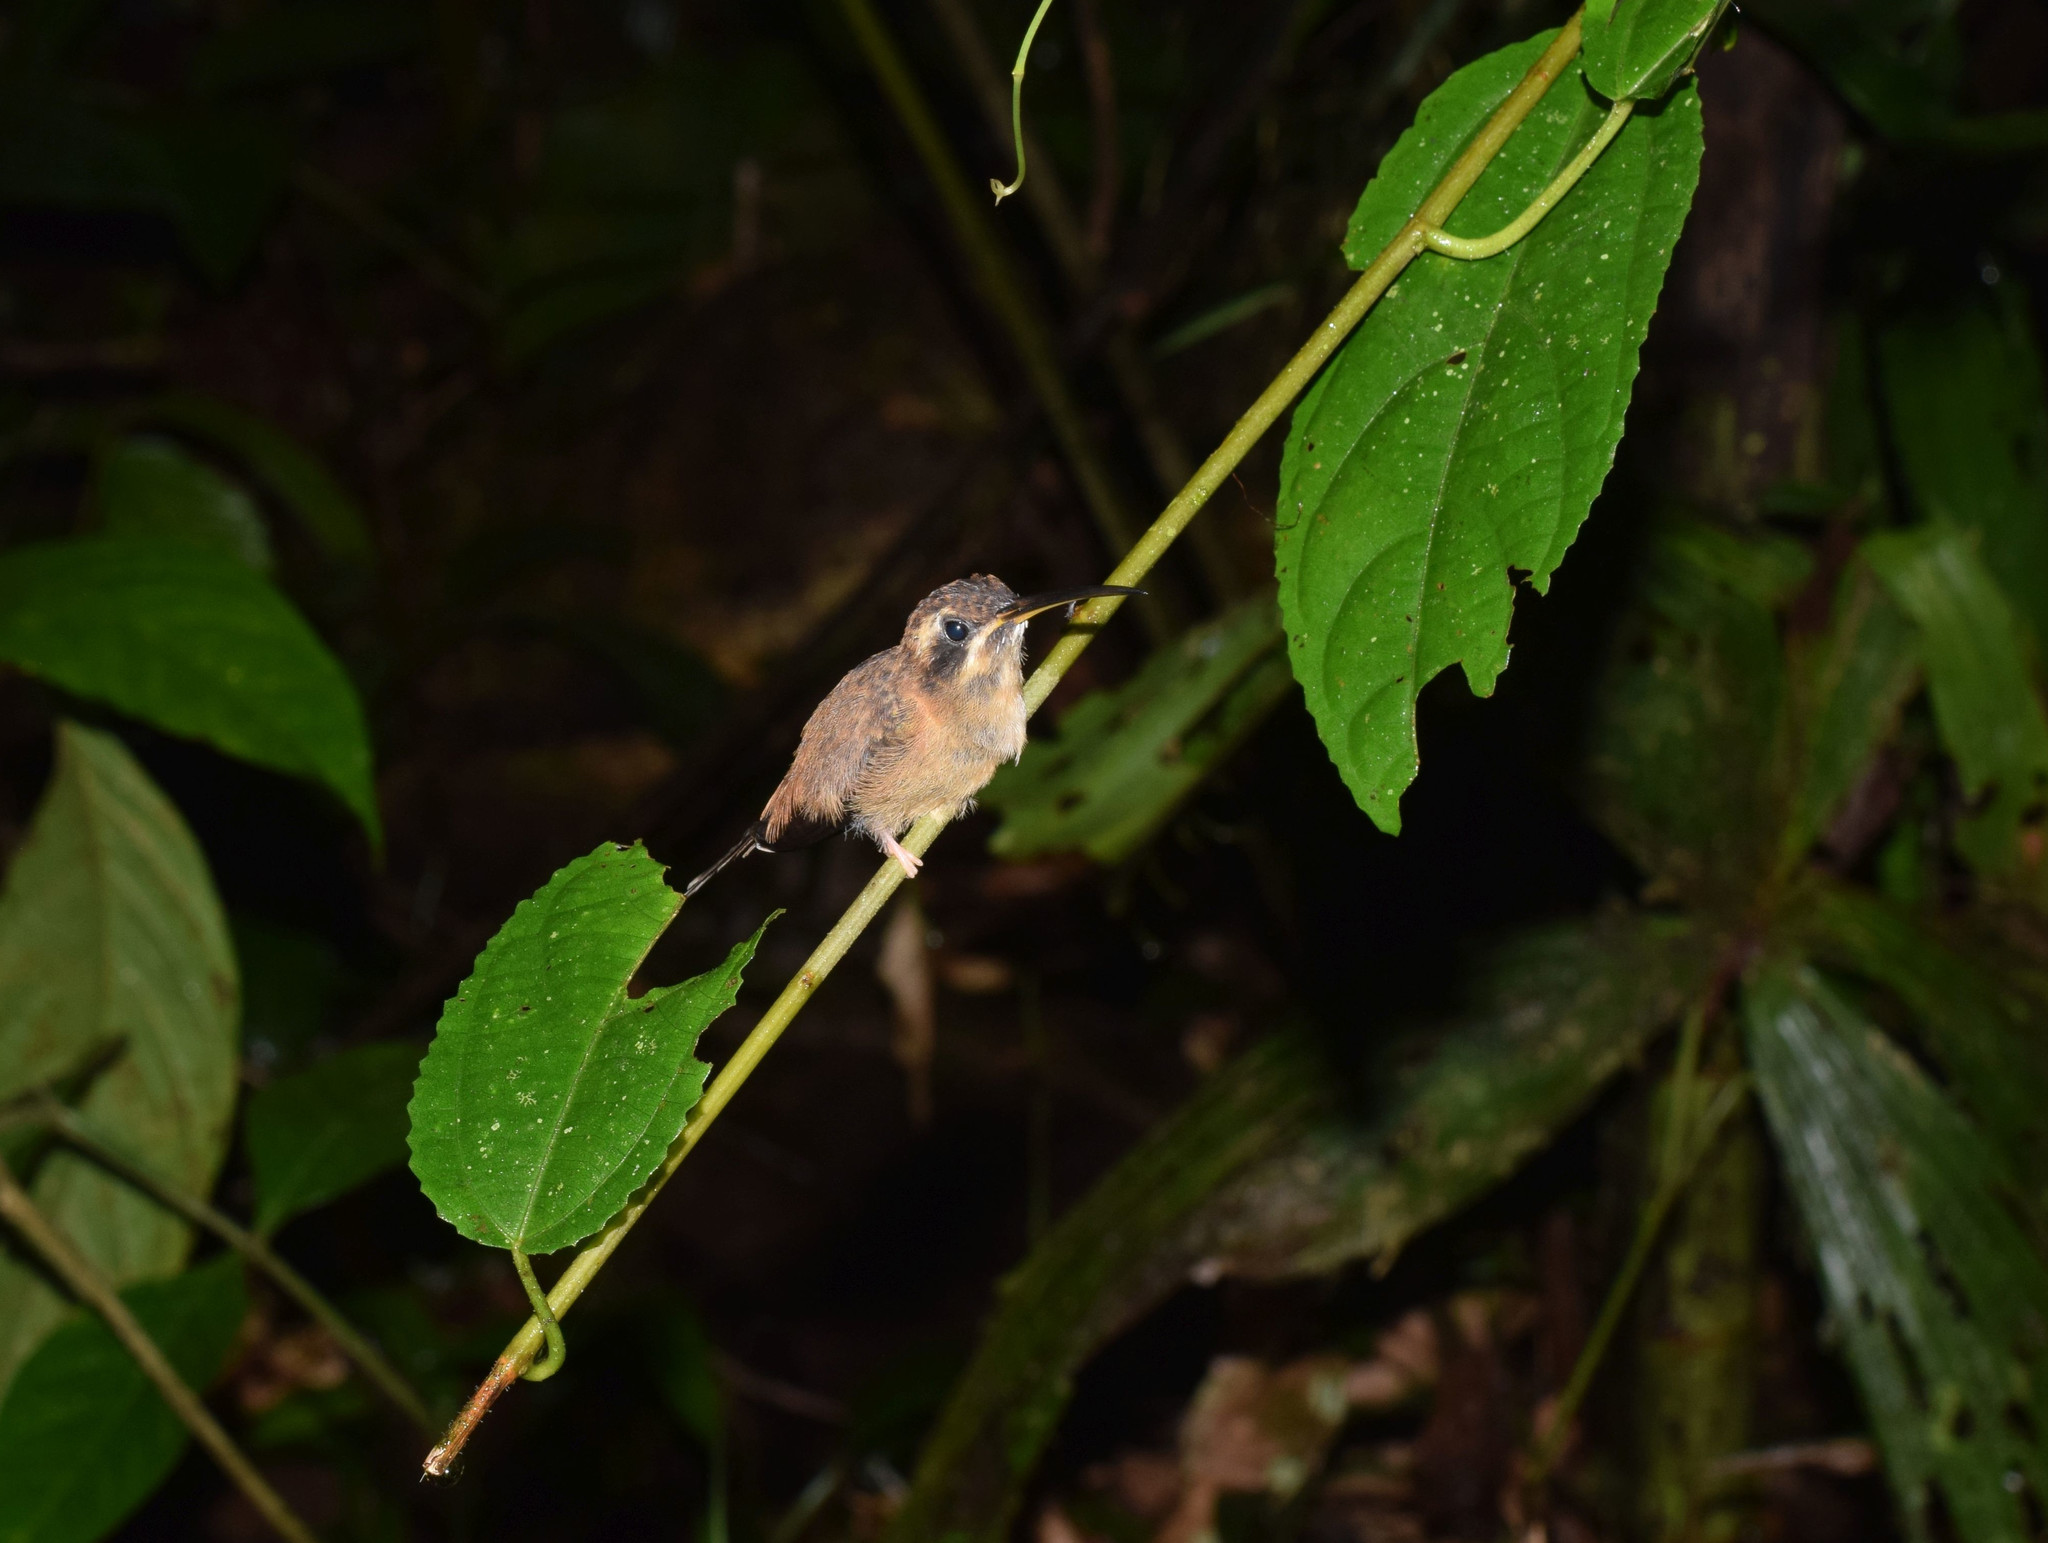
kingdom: Animalia
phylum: Chordata
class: Aves
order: Apodiformes
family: Trochilidae
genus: Phaethornis
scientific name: Phaethornis striigularis
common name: Stripe-throated hermit
